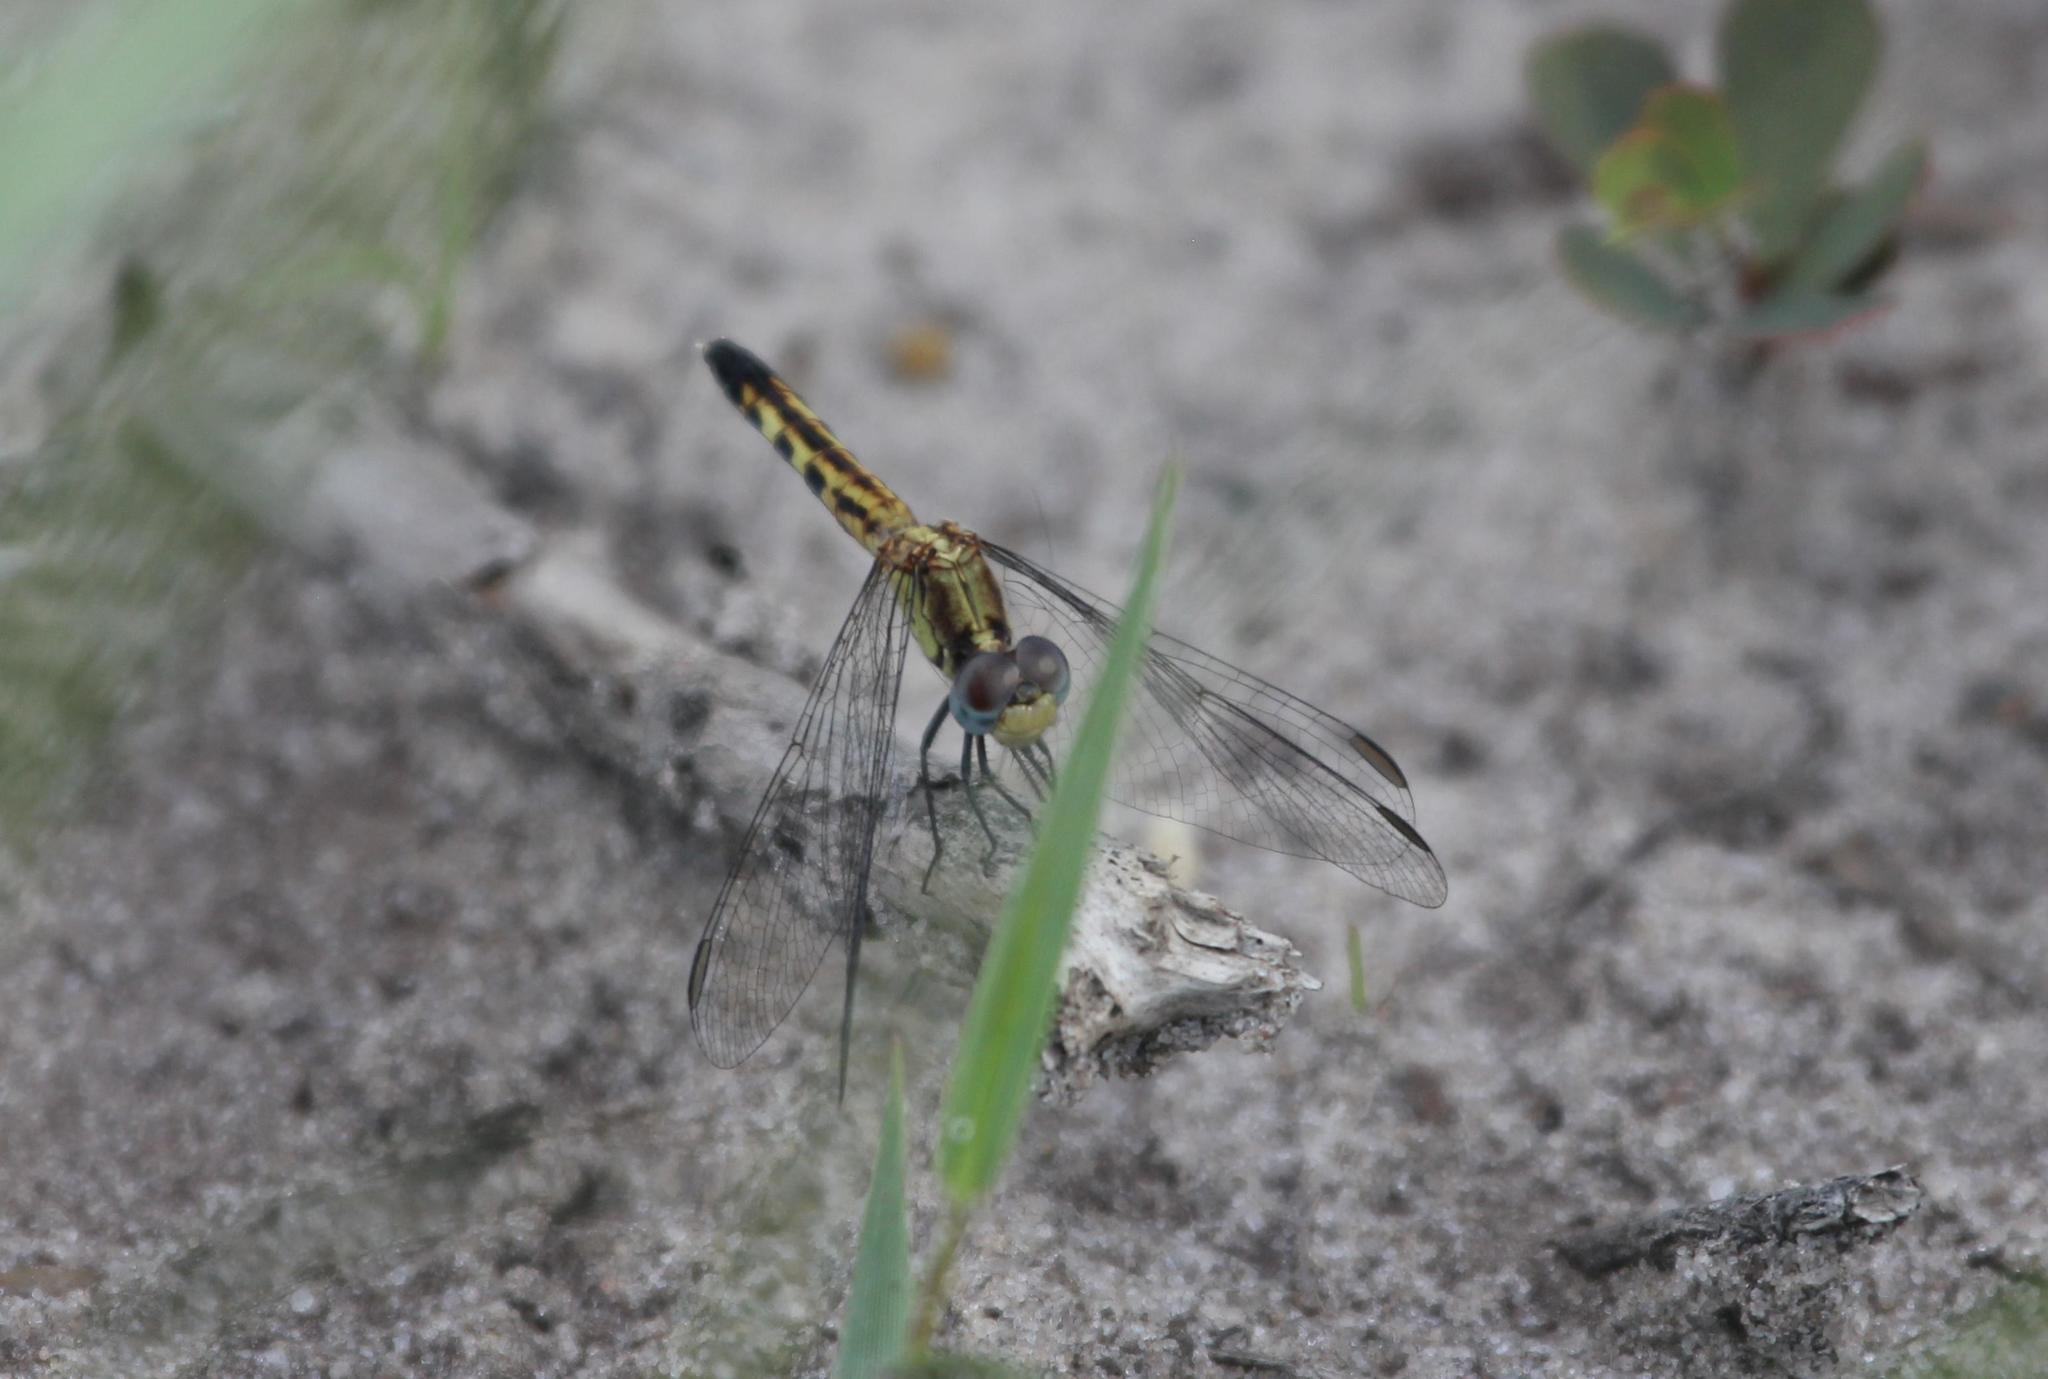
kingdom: Animalia
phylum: Arthropoda
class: Insecta
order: Odonata
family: Libellulidae
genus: Erythrodiplax
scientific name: Erythrodiplax minuscula
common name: Little blue dragonlet
